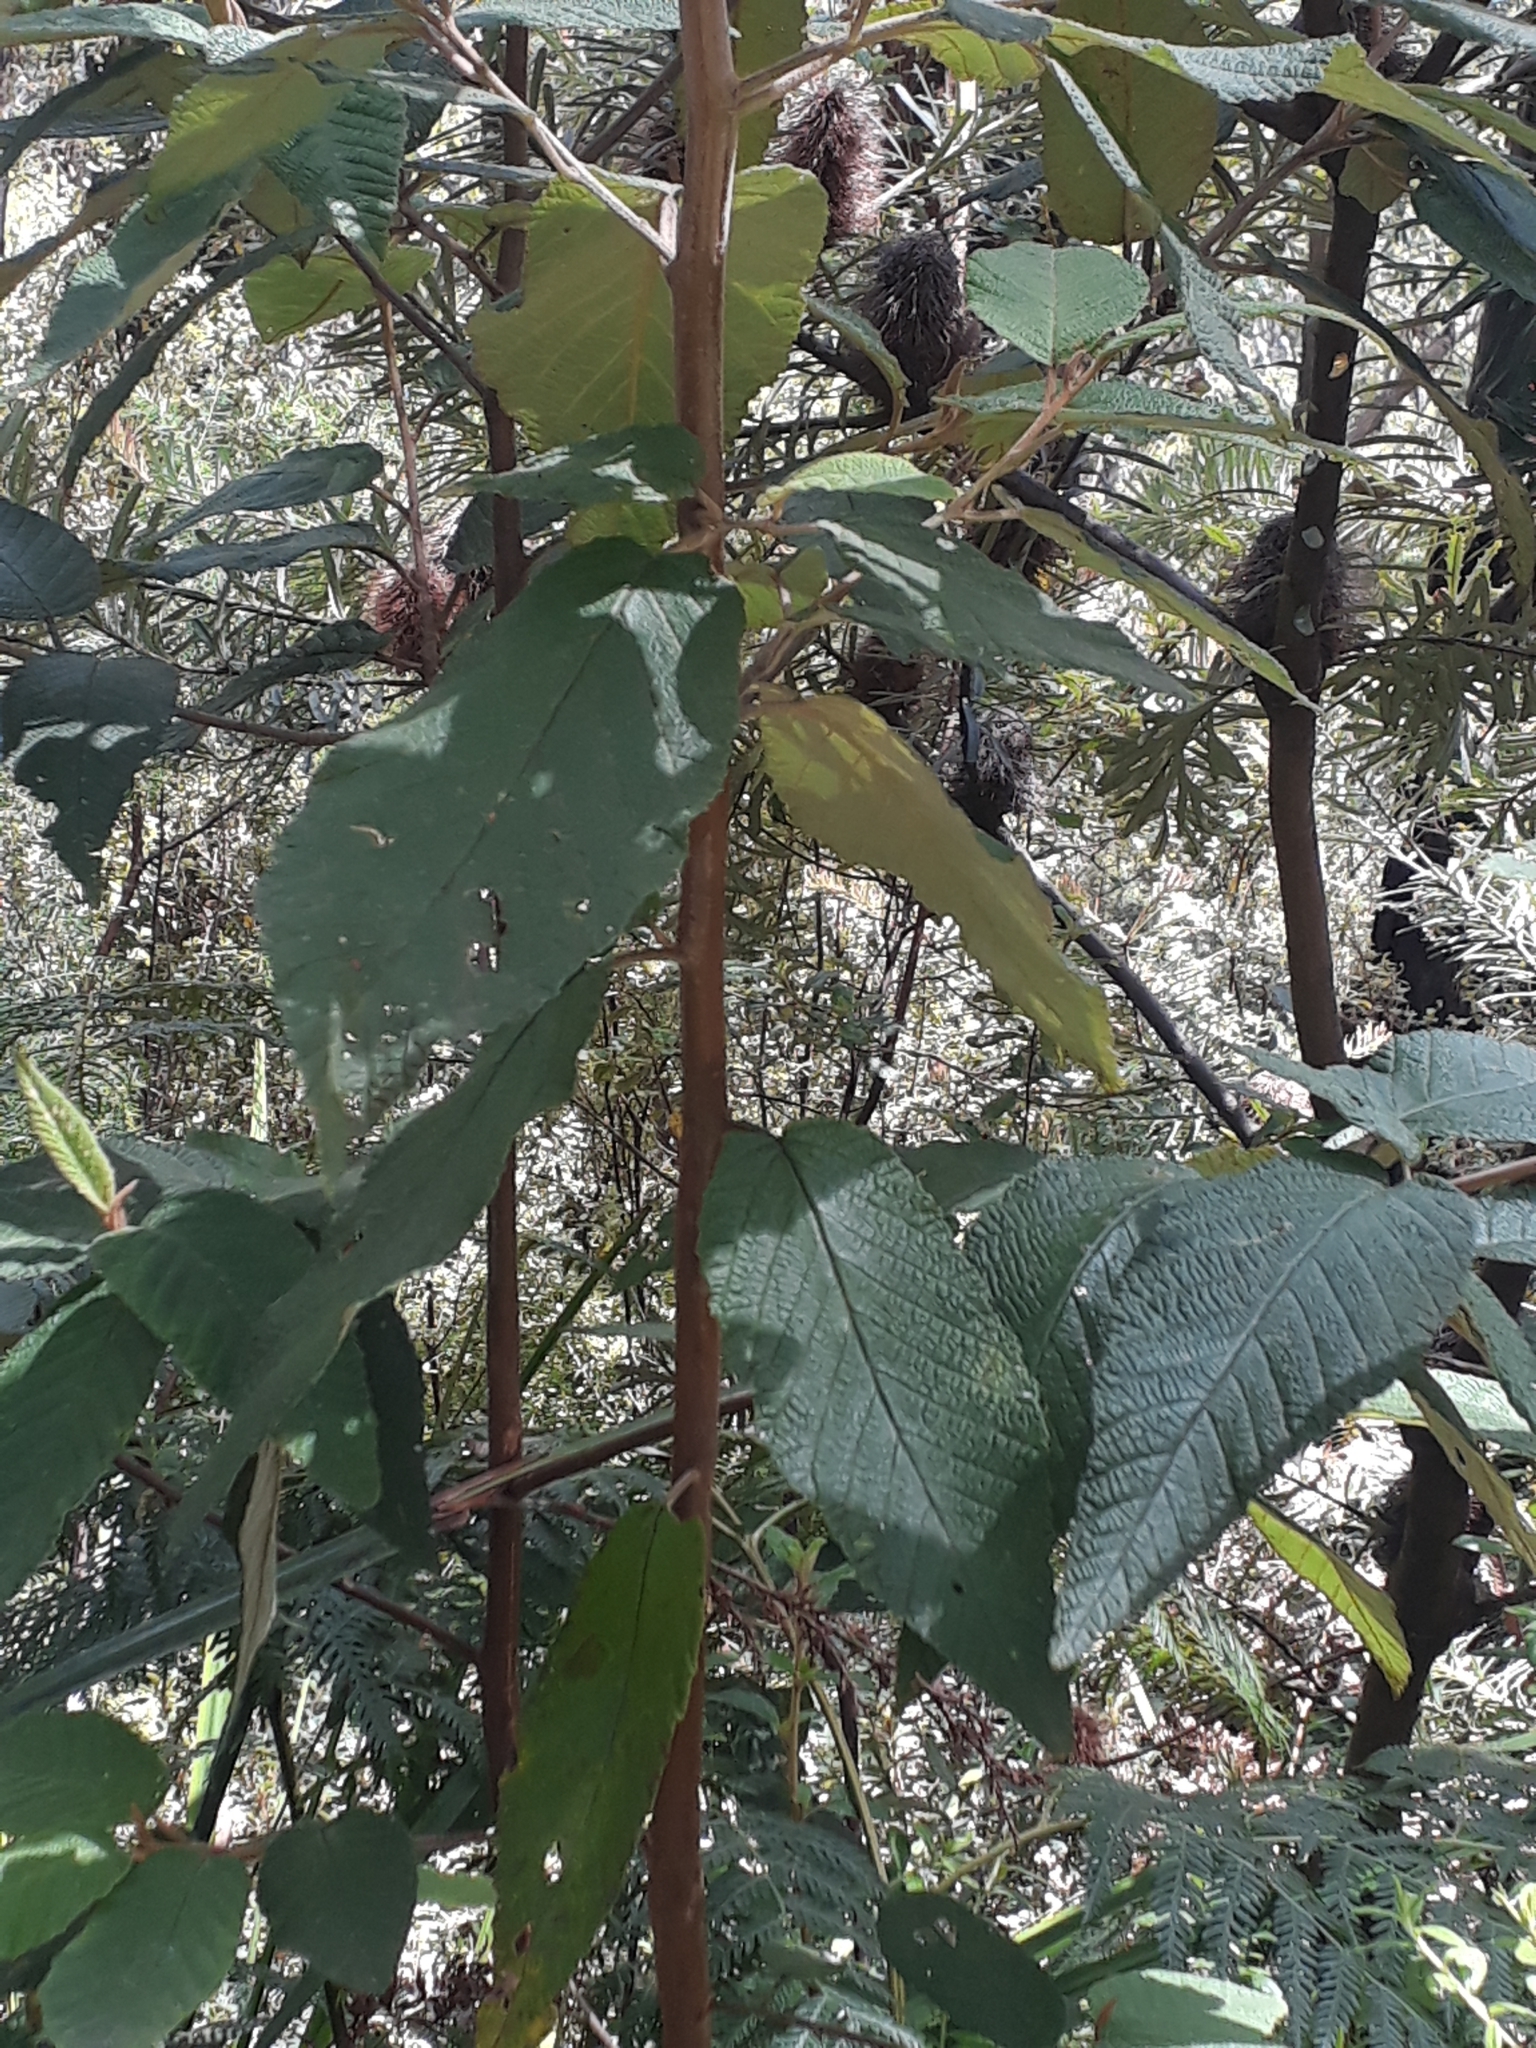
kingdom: Plantae
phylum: Tracheophyta
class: Magnoliopsida
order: Rosales
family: Rhamnaceae
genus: Pomaderris
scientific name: Pomaderris aspera
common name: Hazel pomaderris
